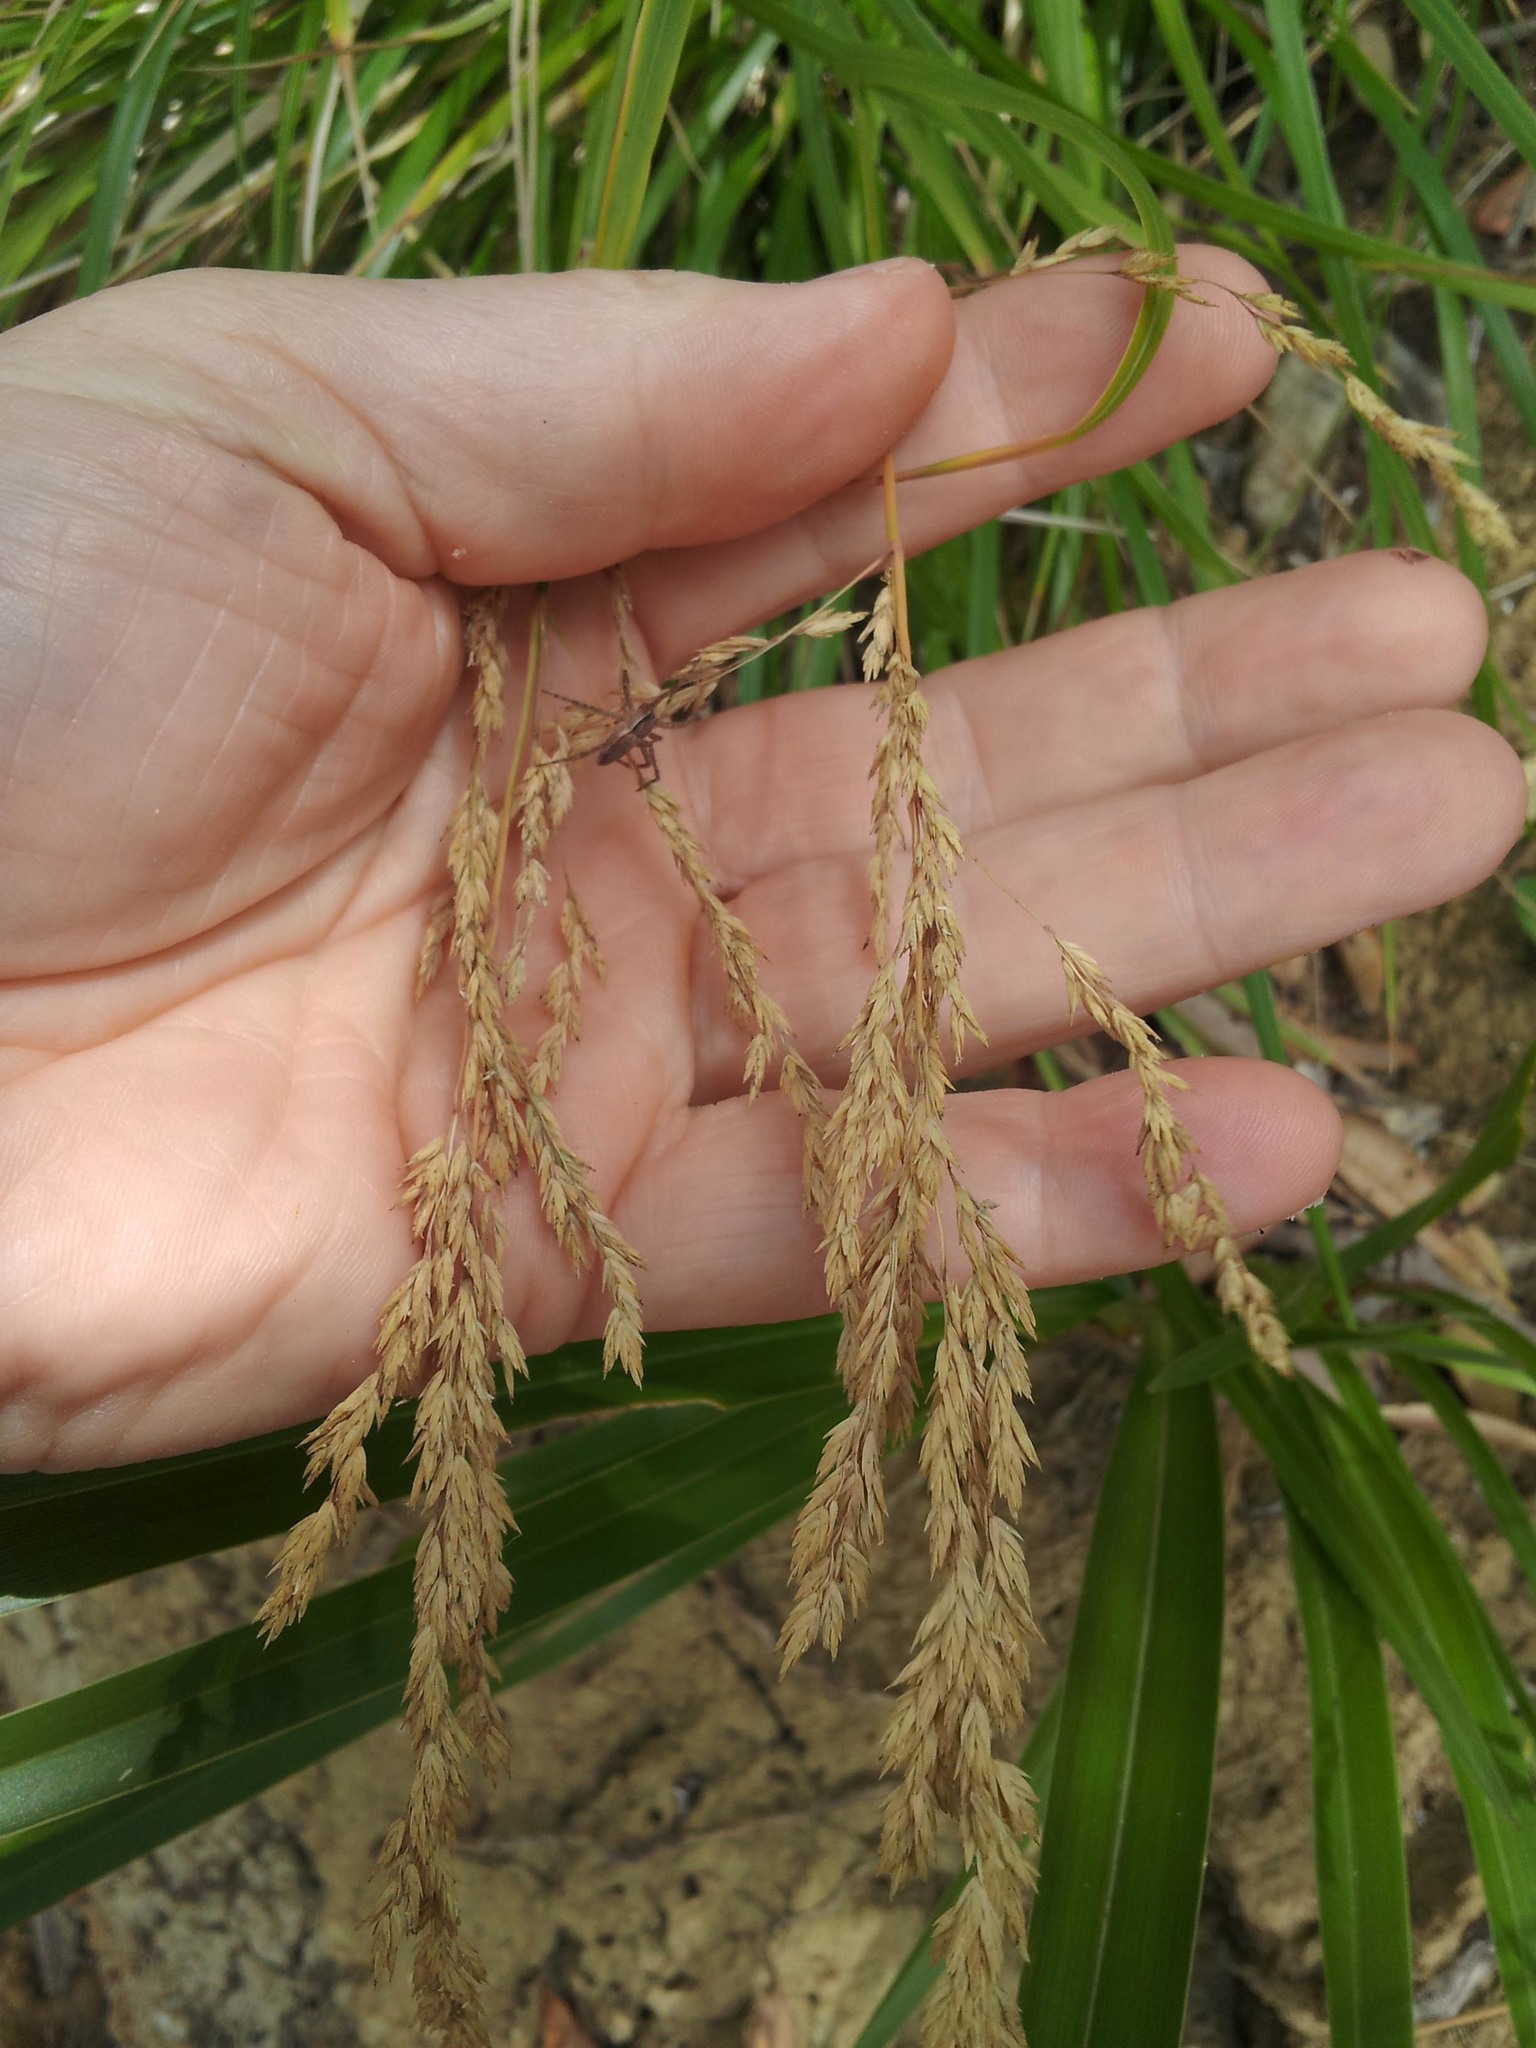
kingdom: Plantae
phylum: Tracheophyta
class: Liliopsida
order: Poales
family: Poaceae
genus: Poa
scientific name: Poa anceps
